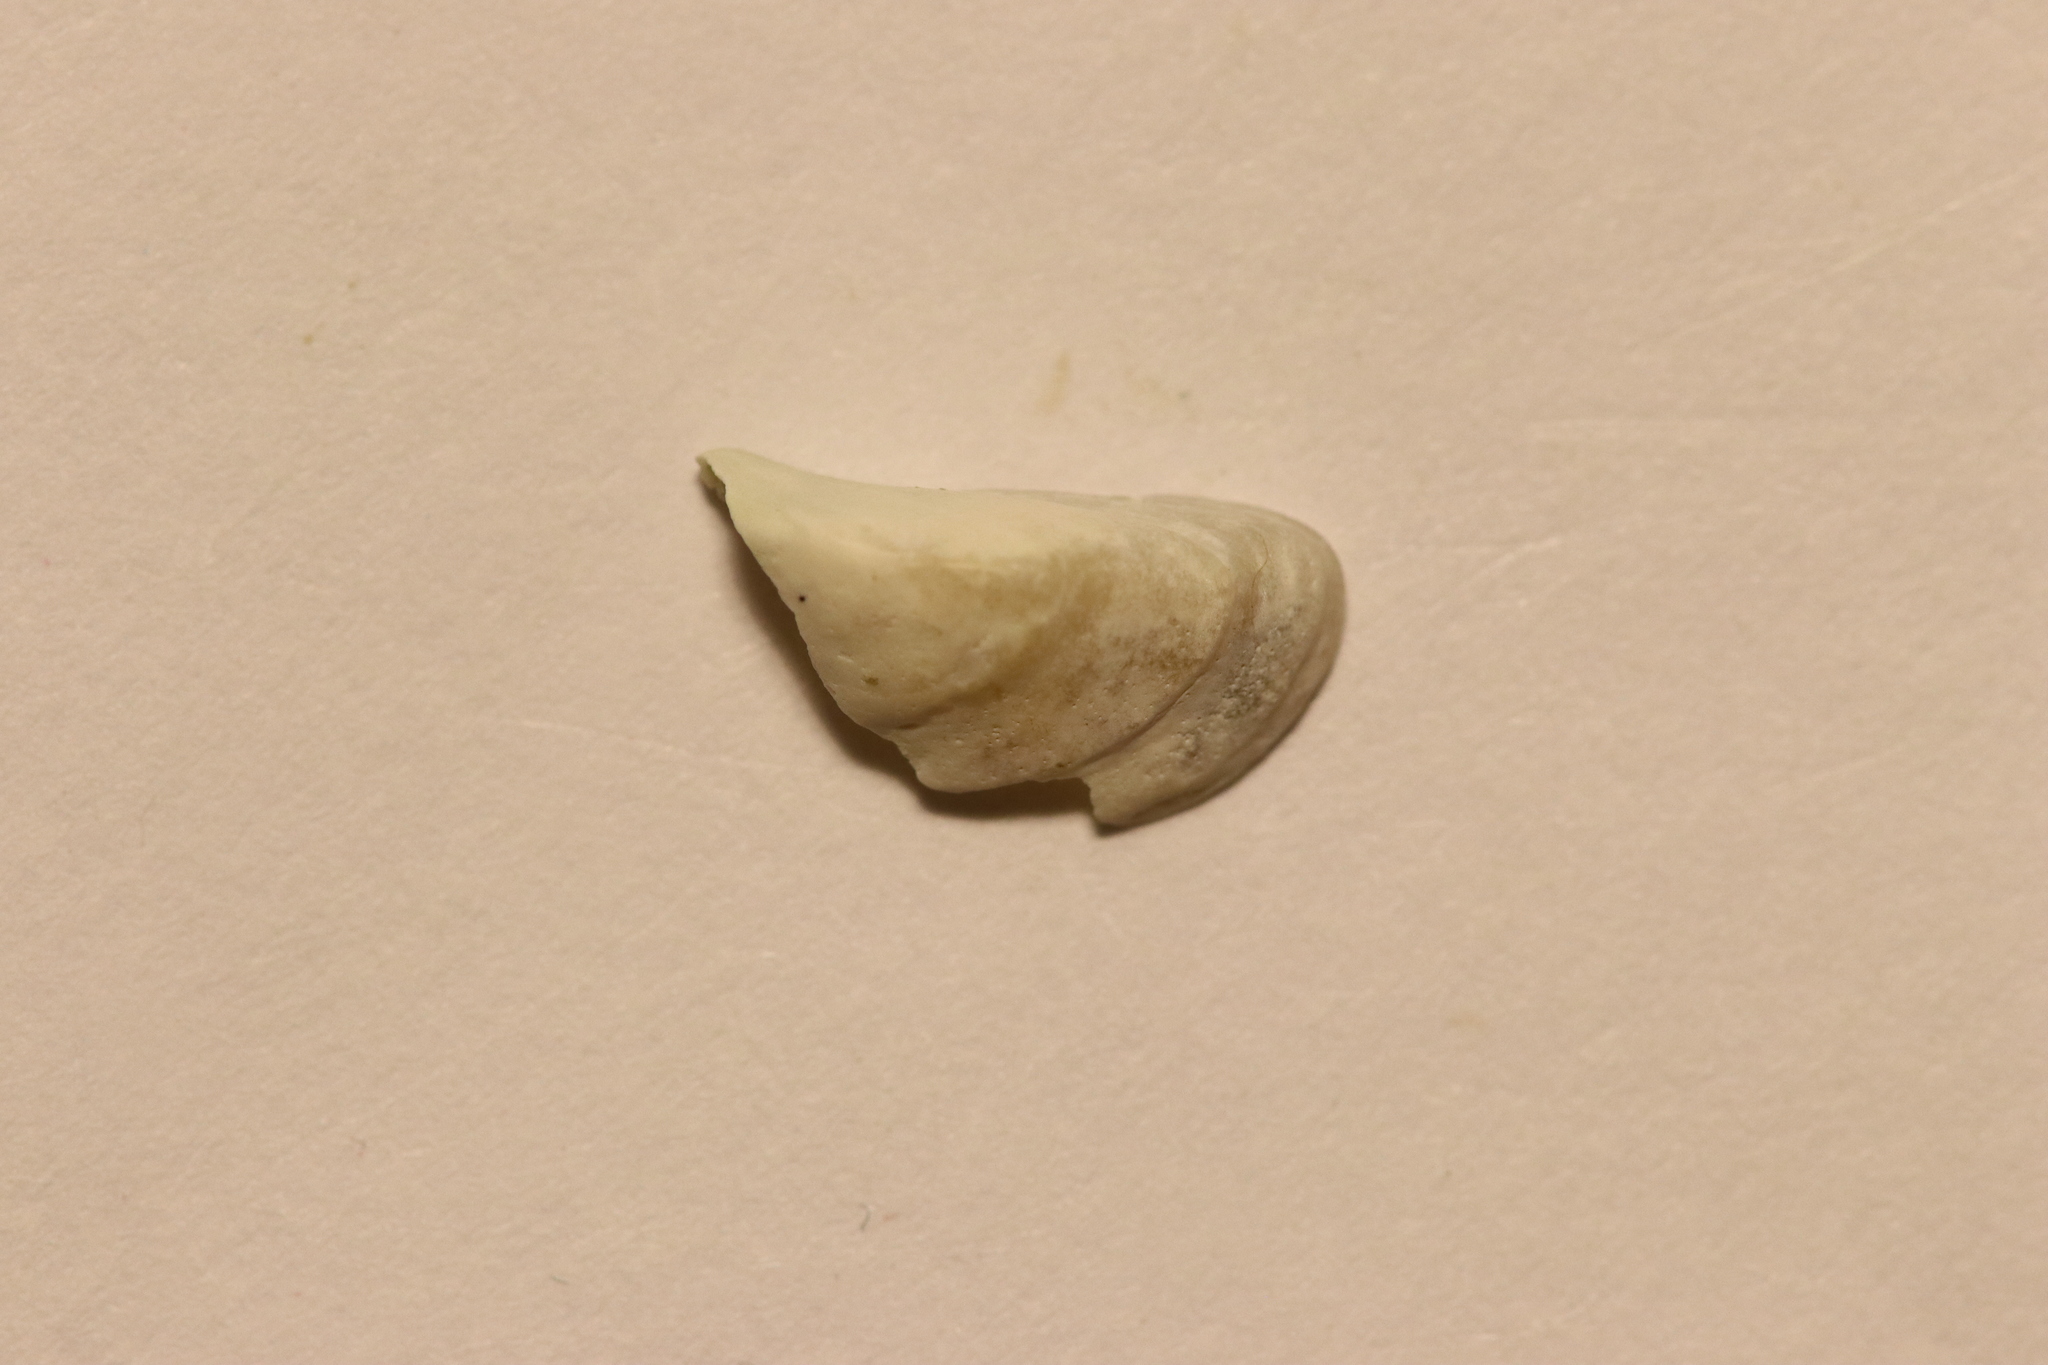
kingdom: Animalia
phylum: Mollusca
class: Bivalvia
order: Myida
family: Dreissenidae
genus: Dreissena
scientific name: Dreissena polymorpha
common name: Zebra mussel
